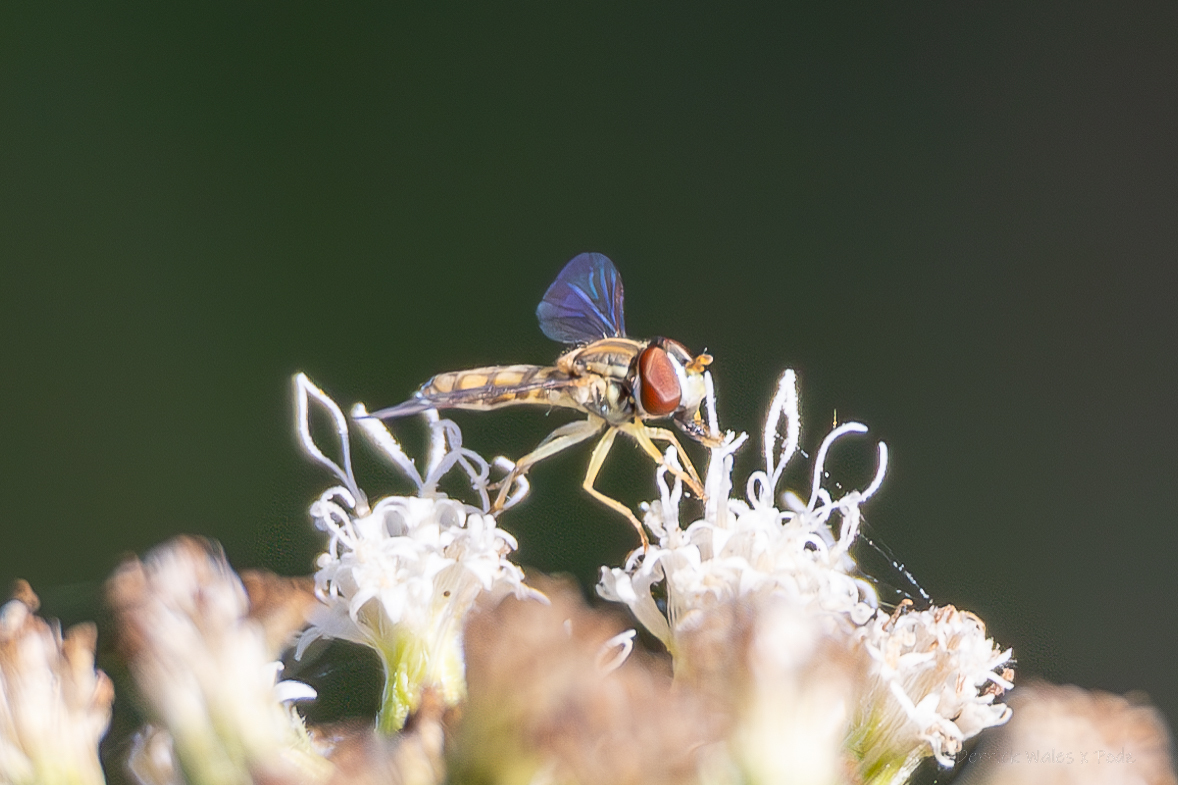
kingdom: Animalia
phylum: Arthropoda
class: Insecta
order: Diptera
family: Syrphidae
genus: Toxomerus
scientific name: Toxomerus marginatus
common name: Syrphid fly
